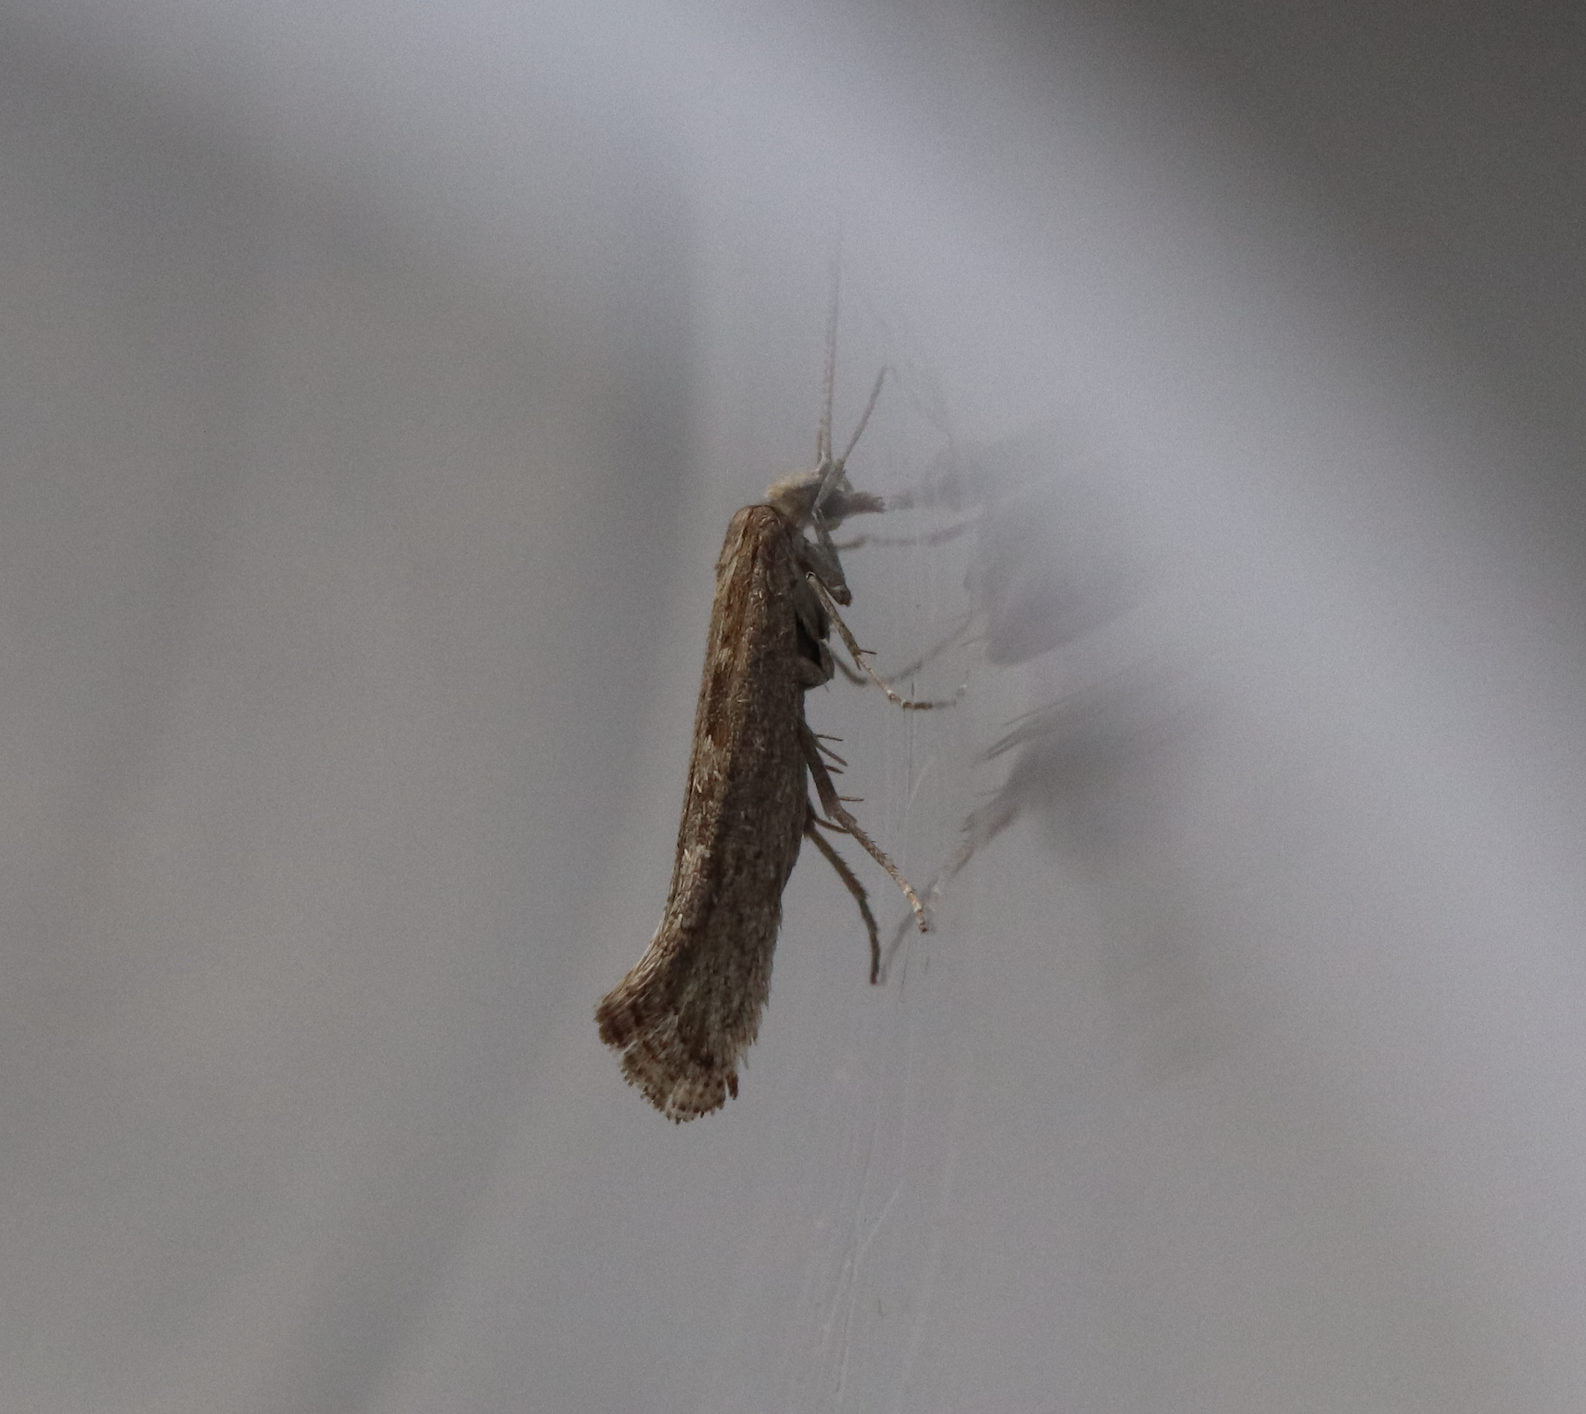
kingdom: Animalia
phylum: Arthropoda
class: Insecta
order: Lepidoptera
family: Plutellidae
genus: Plutella
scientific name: Plutella xylostella
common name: Diamond-back moth
